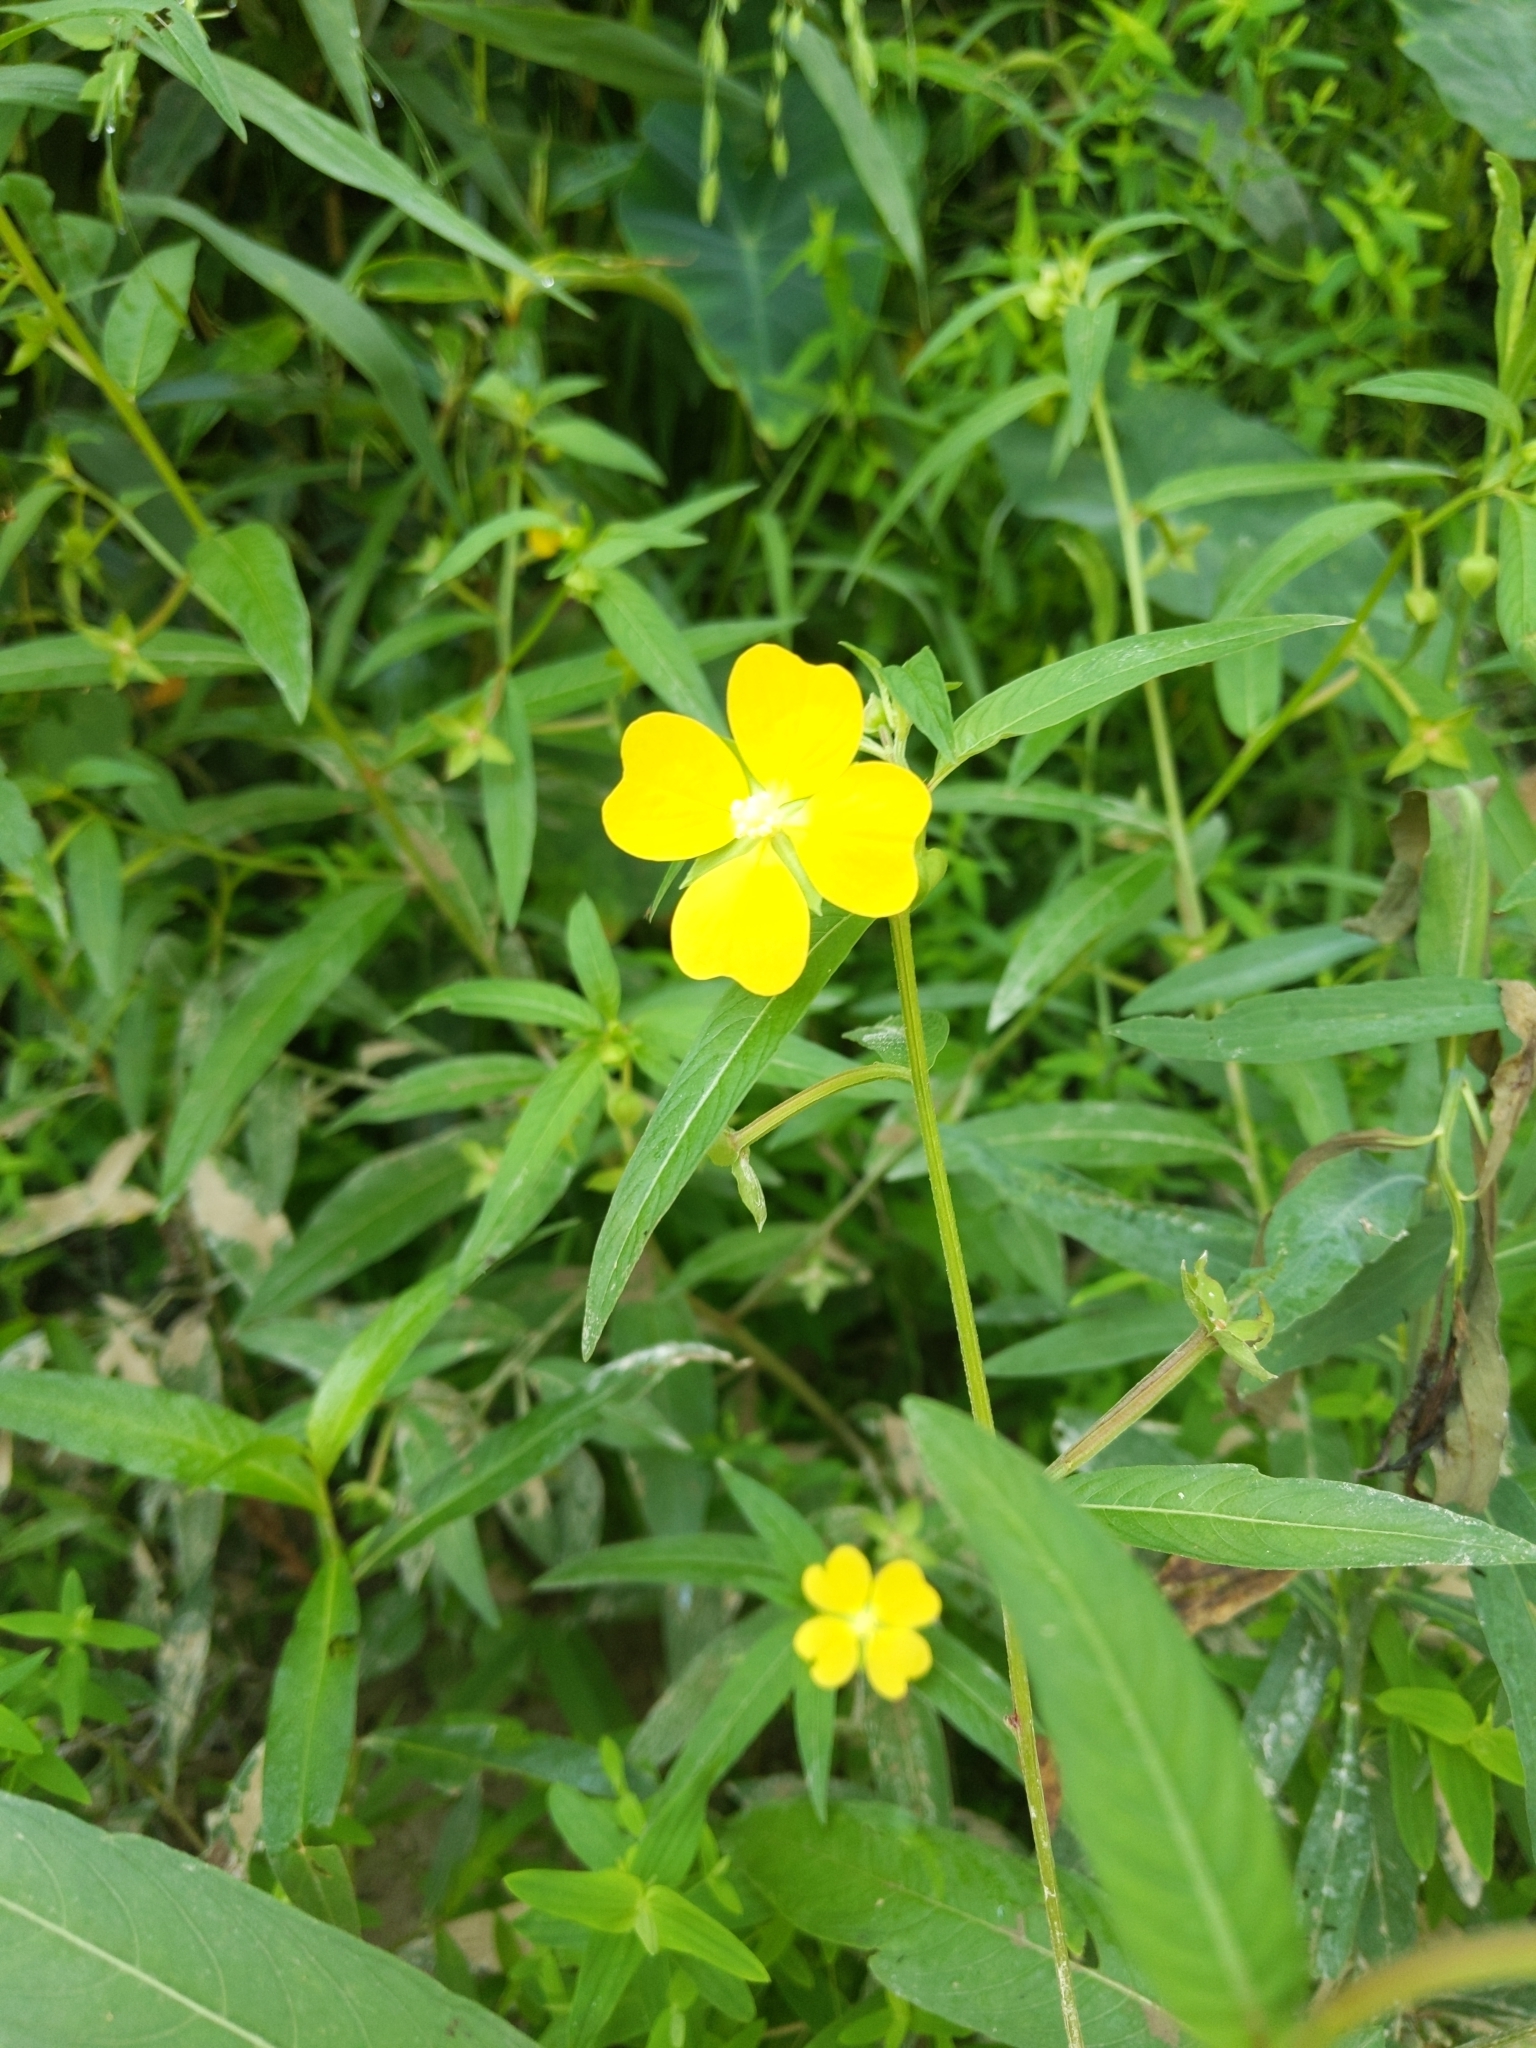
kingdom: Plantae
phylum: Tracheophyta
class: Magnoliopsida
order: Myrtales
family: Onagraceae
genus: Ludwigia
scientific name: Ludwigia octovalvis
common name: Water-primrose
